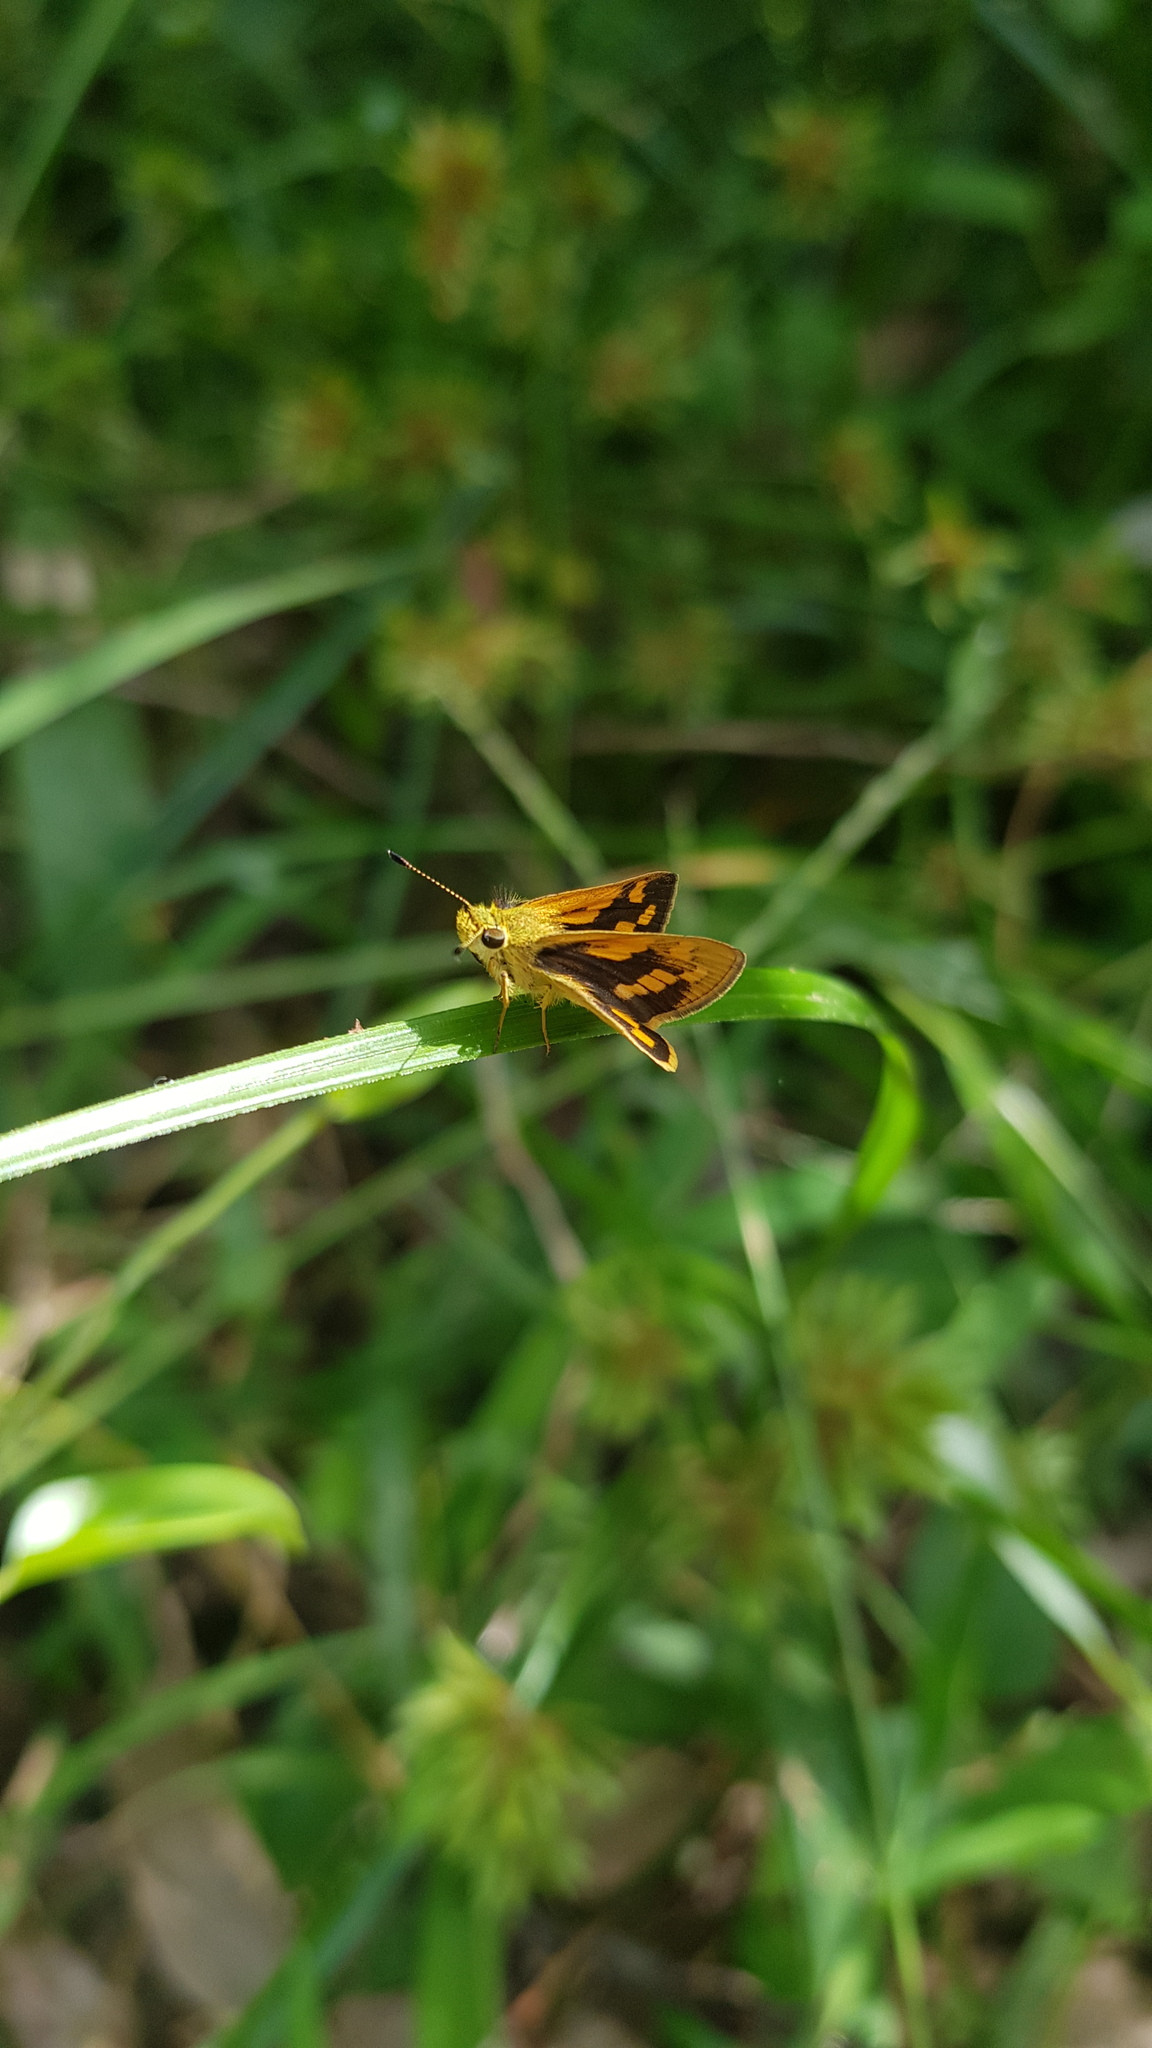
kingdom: Animalia
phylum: Arthropoda
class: Insecta
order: Lepidoptera
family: Hesperiidae
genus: Ocybadistes
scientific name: Ocybadistes walkeri
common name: Yellow-banded dart
